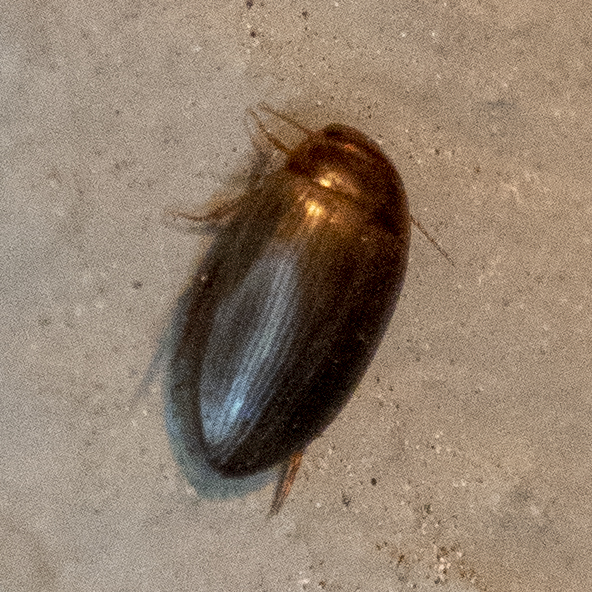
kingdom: Animalia
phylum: Arthropoda
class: Insecta
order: Coleoptera
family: Dytiscidae
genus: Copelatus
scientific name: Copelatus glyphicus
